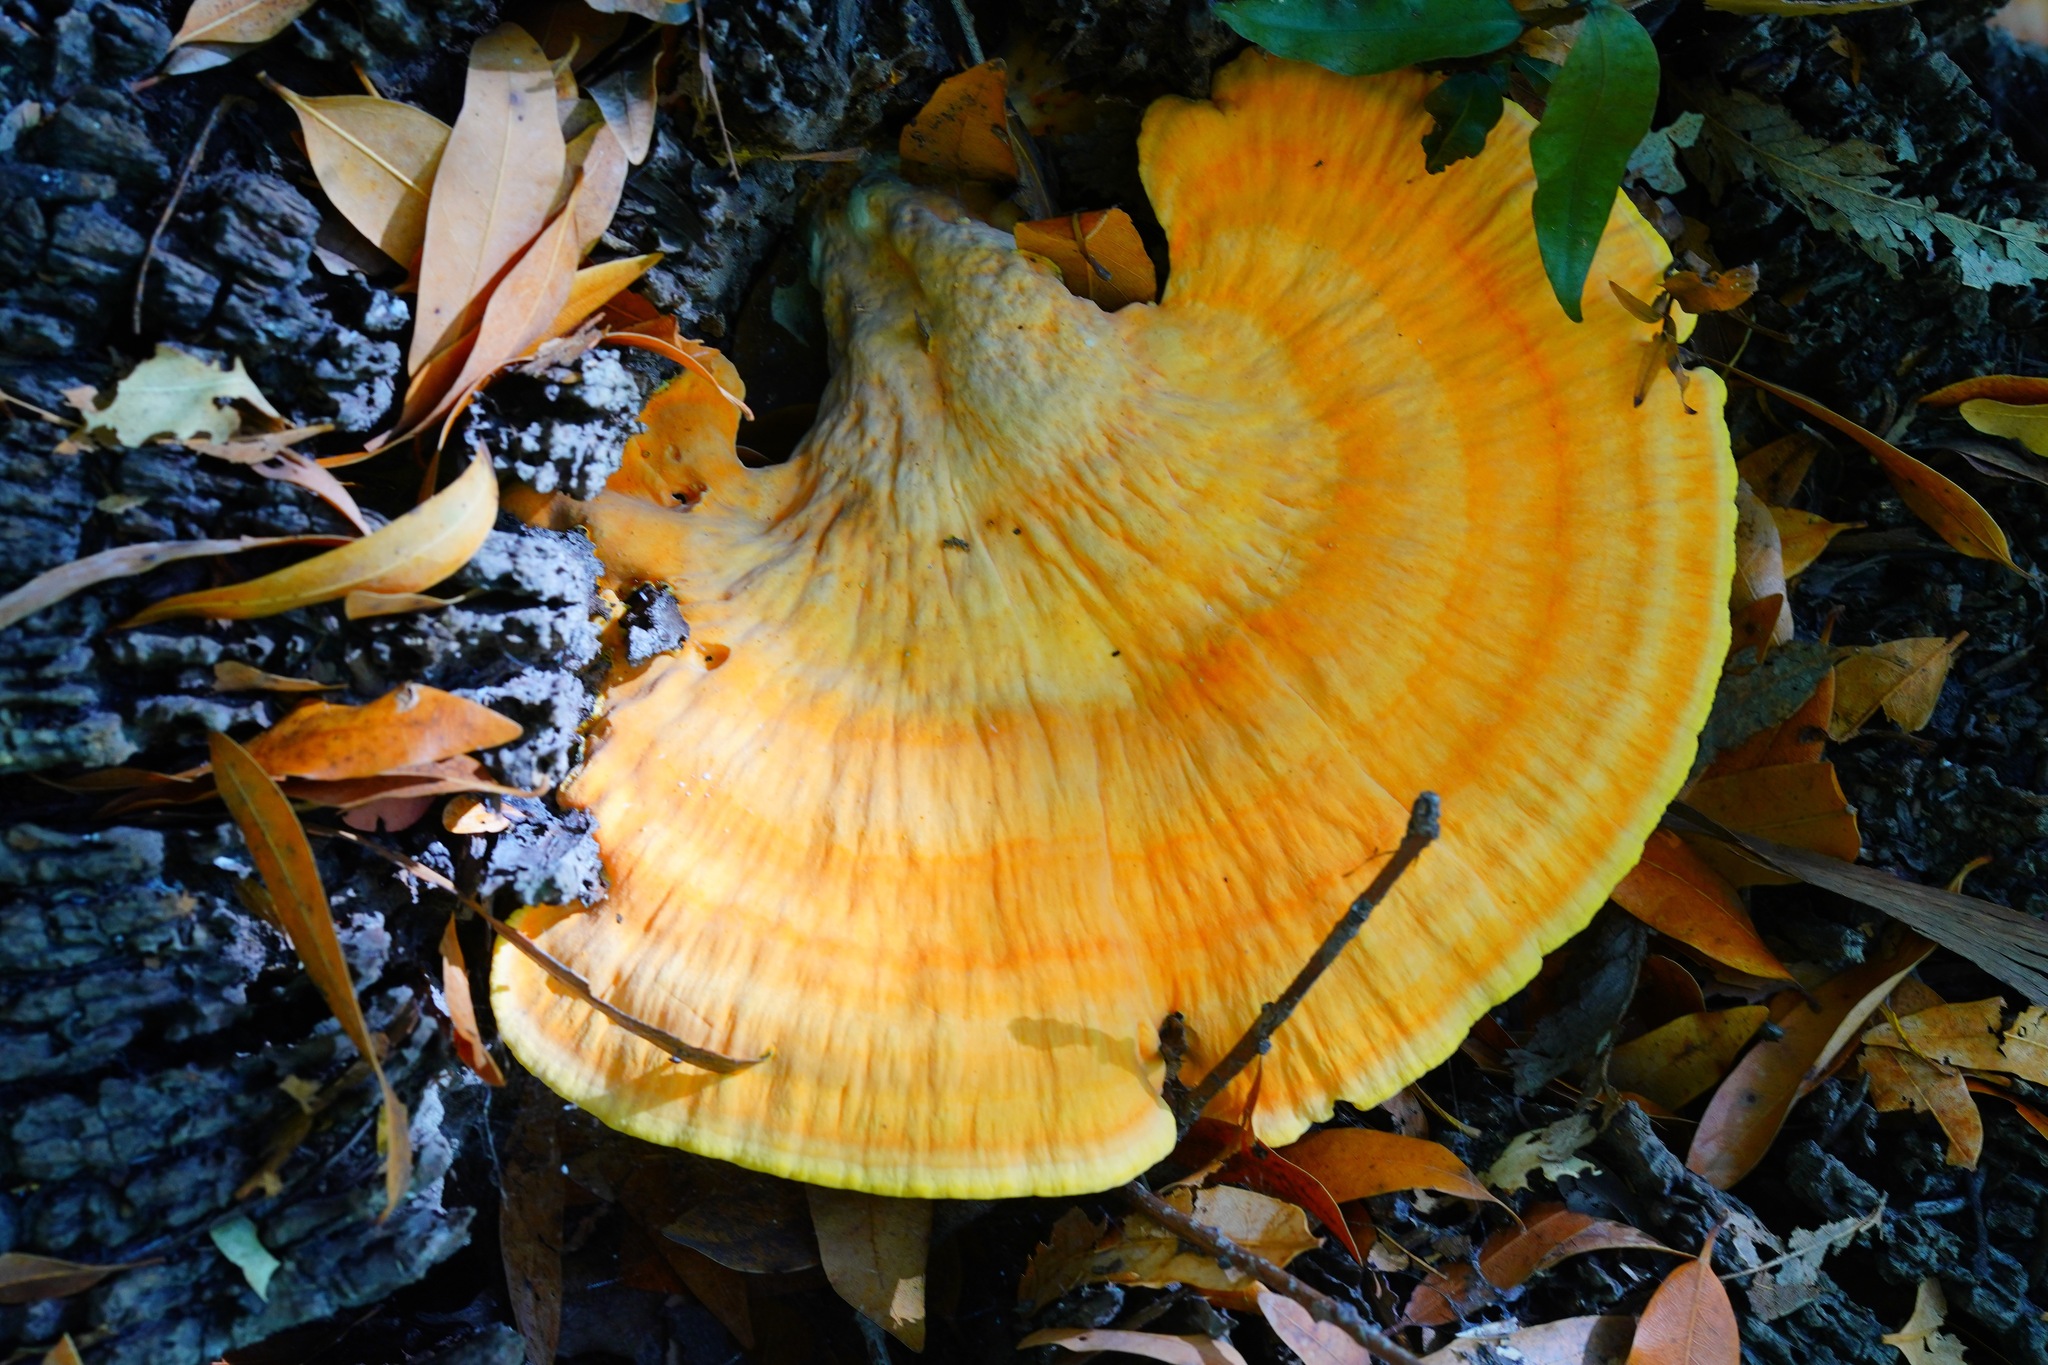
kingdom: Fungi
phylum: Basidiomycota
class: Agaricomycetes
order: Polyporales
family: Laetiporaceae
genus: Laetiporus
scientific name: Laetiporus gilbertsonii
